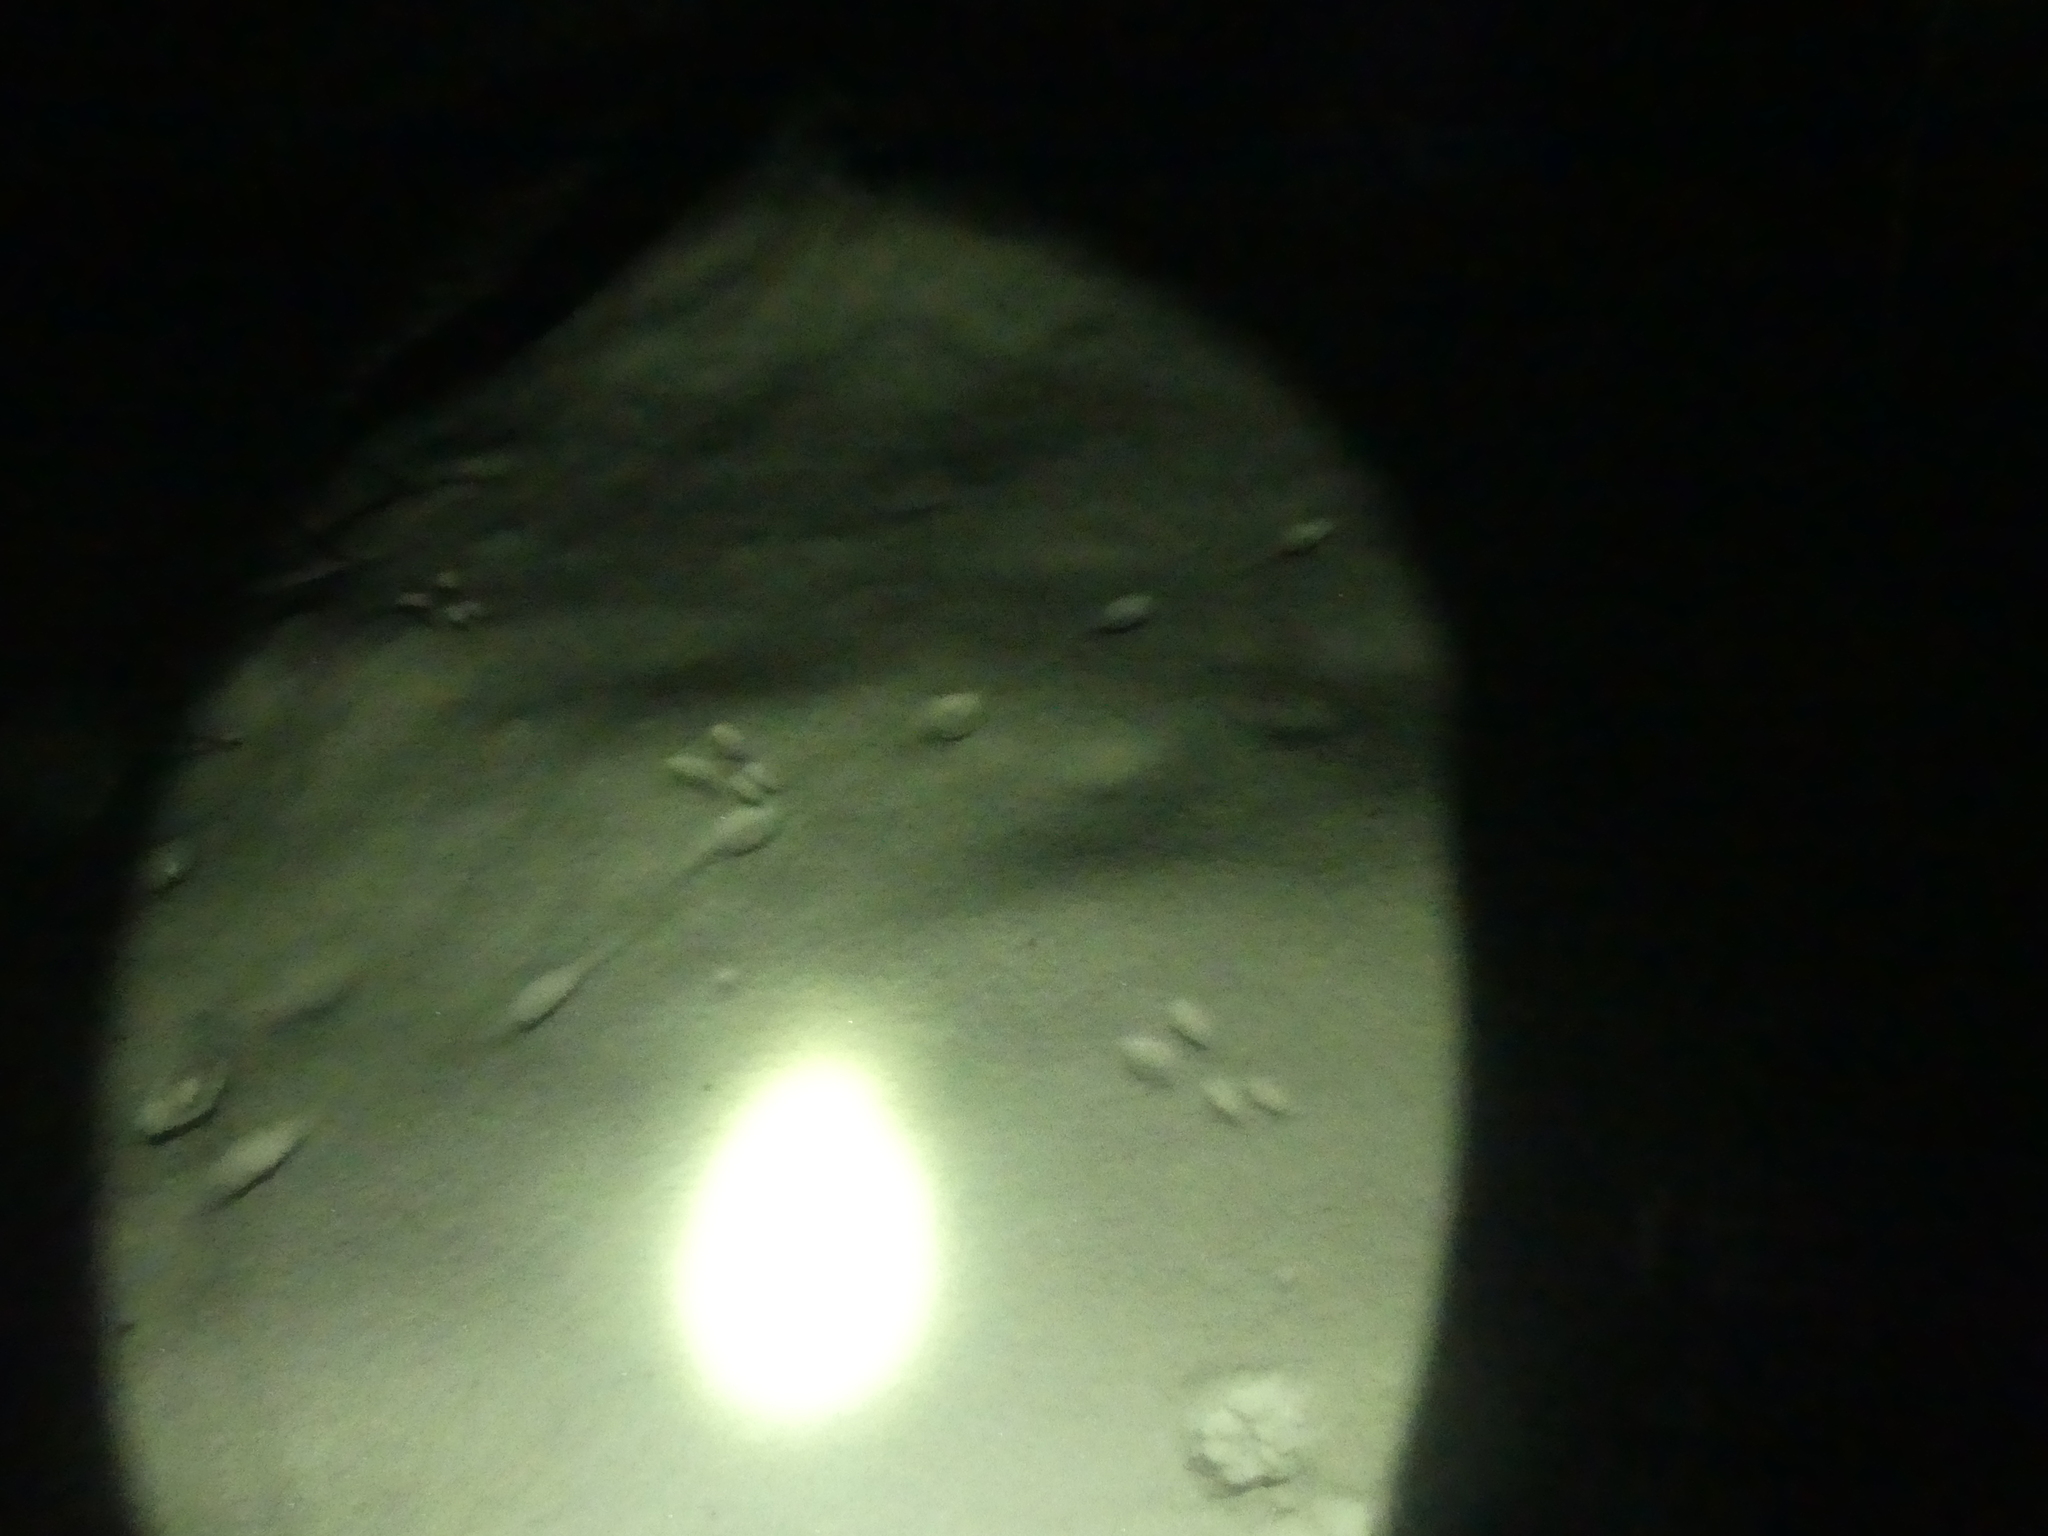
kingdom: Animalia
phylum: Chordata
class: Mammalia
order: Rodentia
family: Sciuridae
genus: Sciurus
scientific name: Sciurus vulgaris
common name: Eurasian red squirrel
